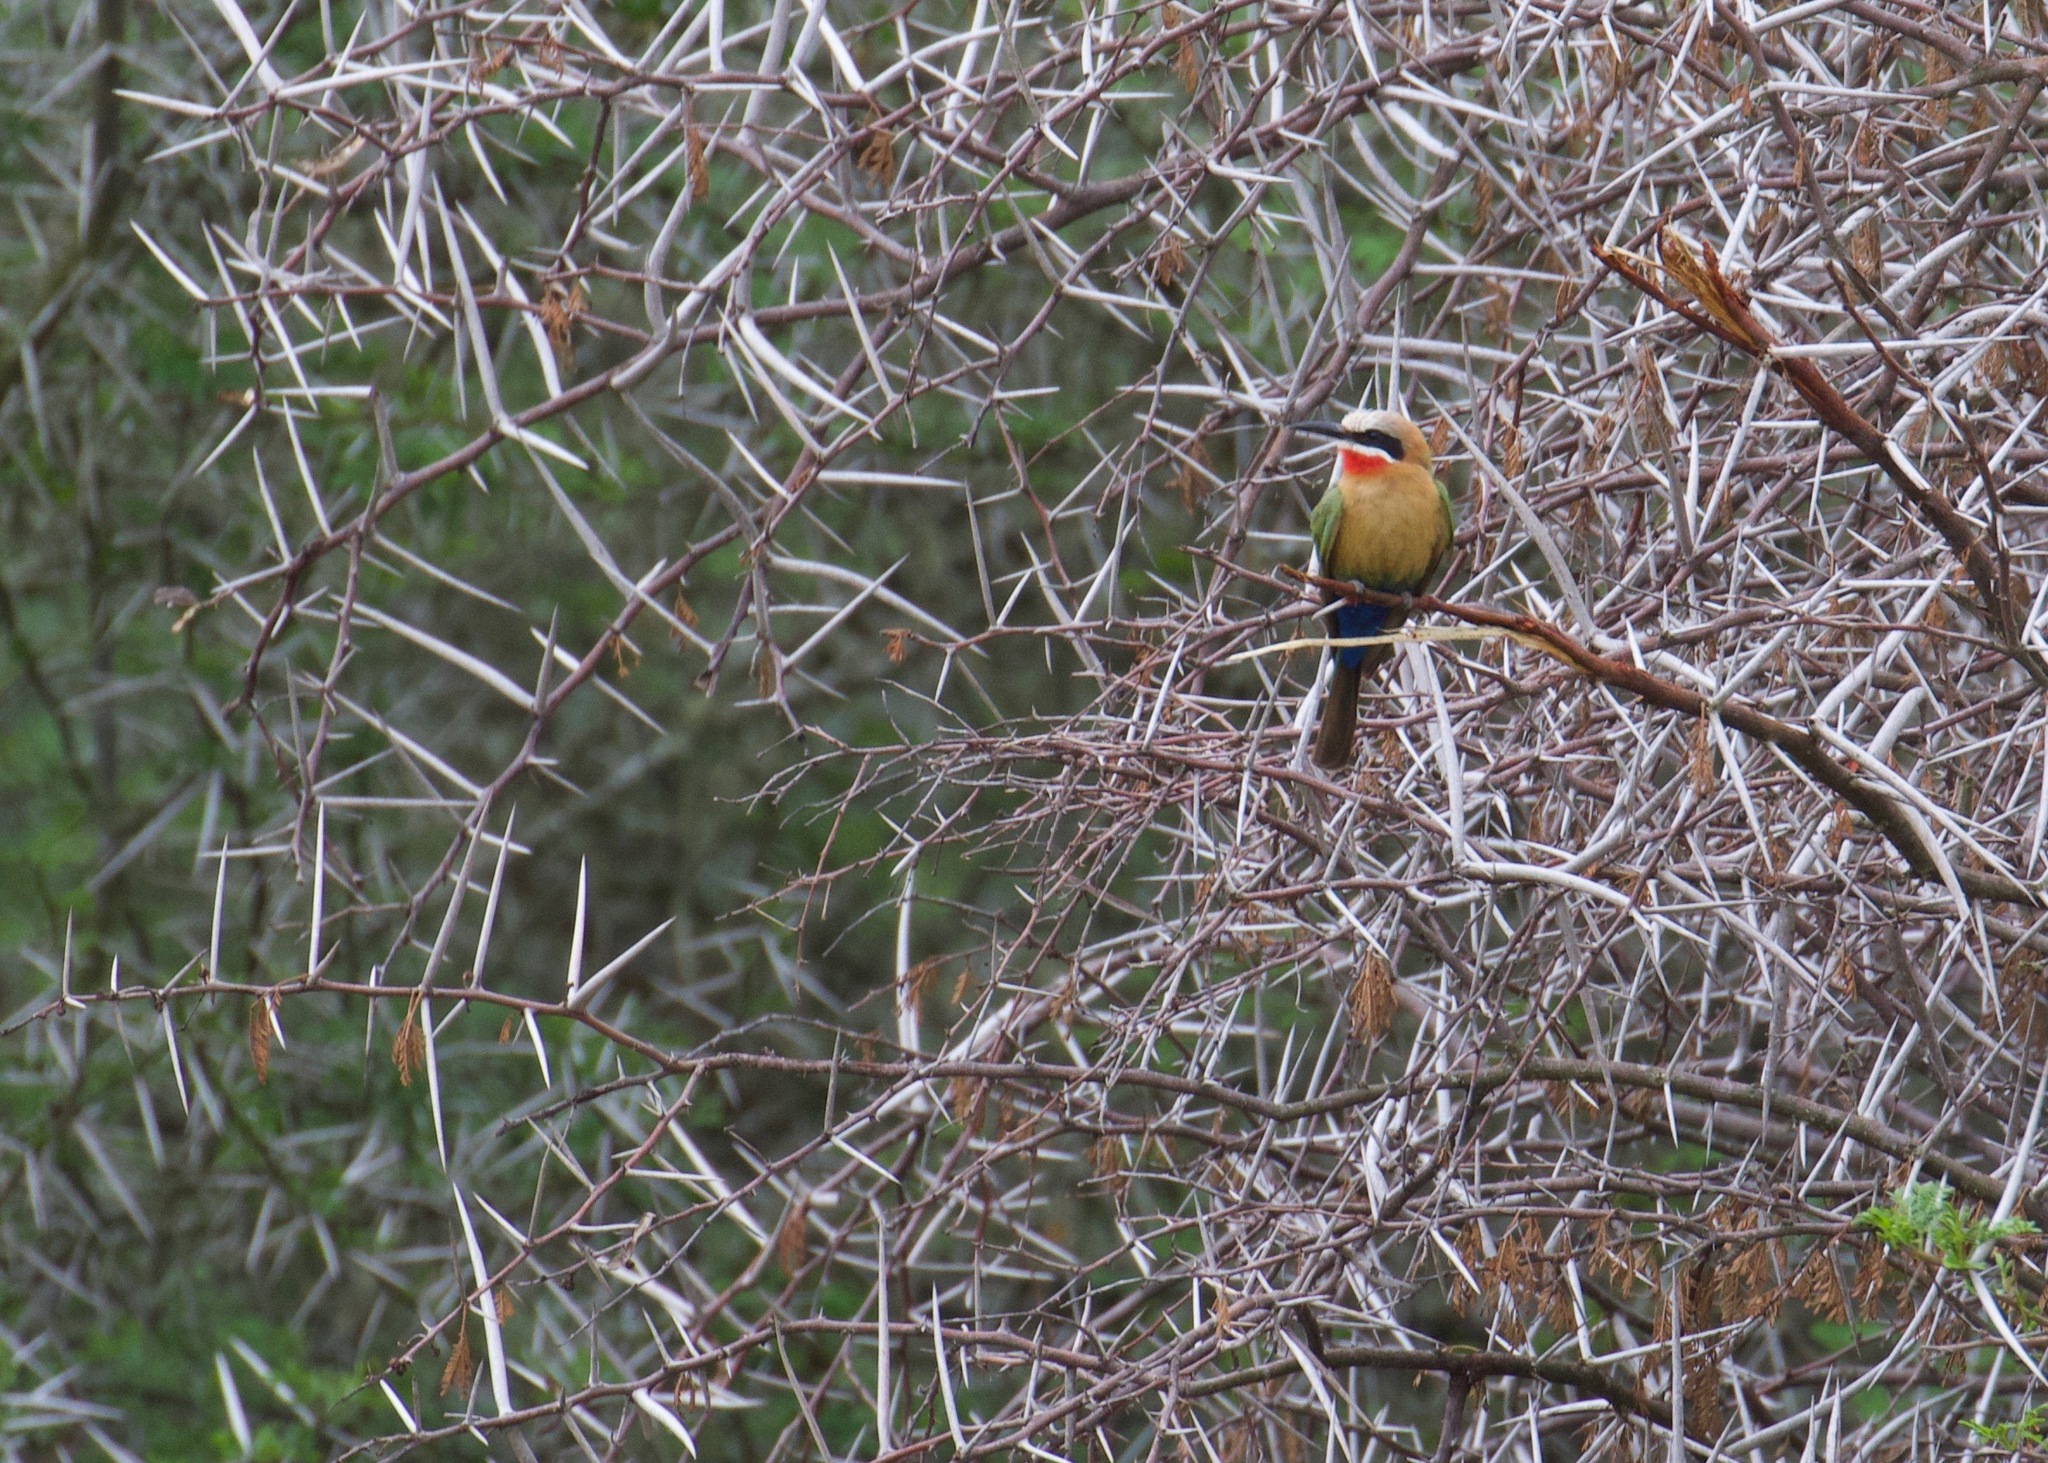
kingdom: Animalia
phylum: Chordata
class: Aves
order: Coraciiformes
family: Meropidae
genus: Merops
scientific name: Merops bullockoides
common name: White-fronted bee-eater
